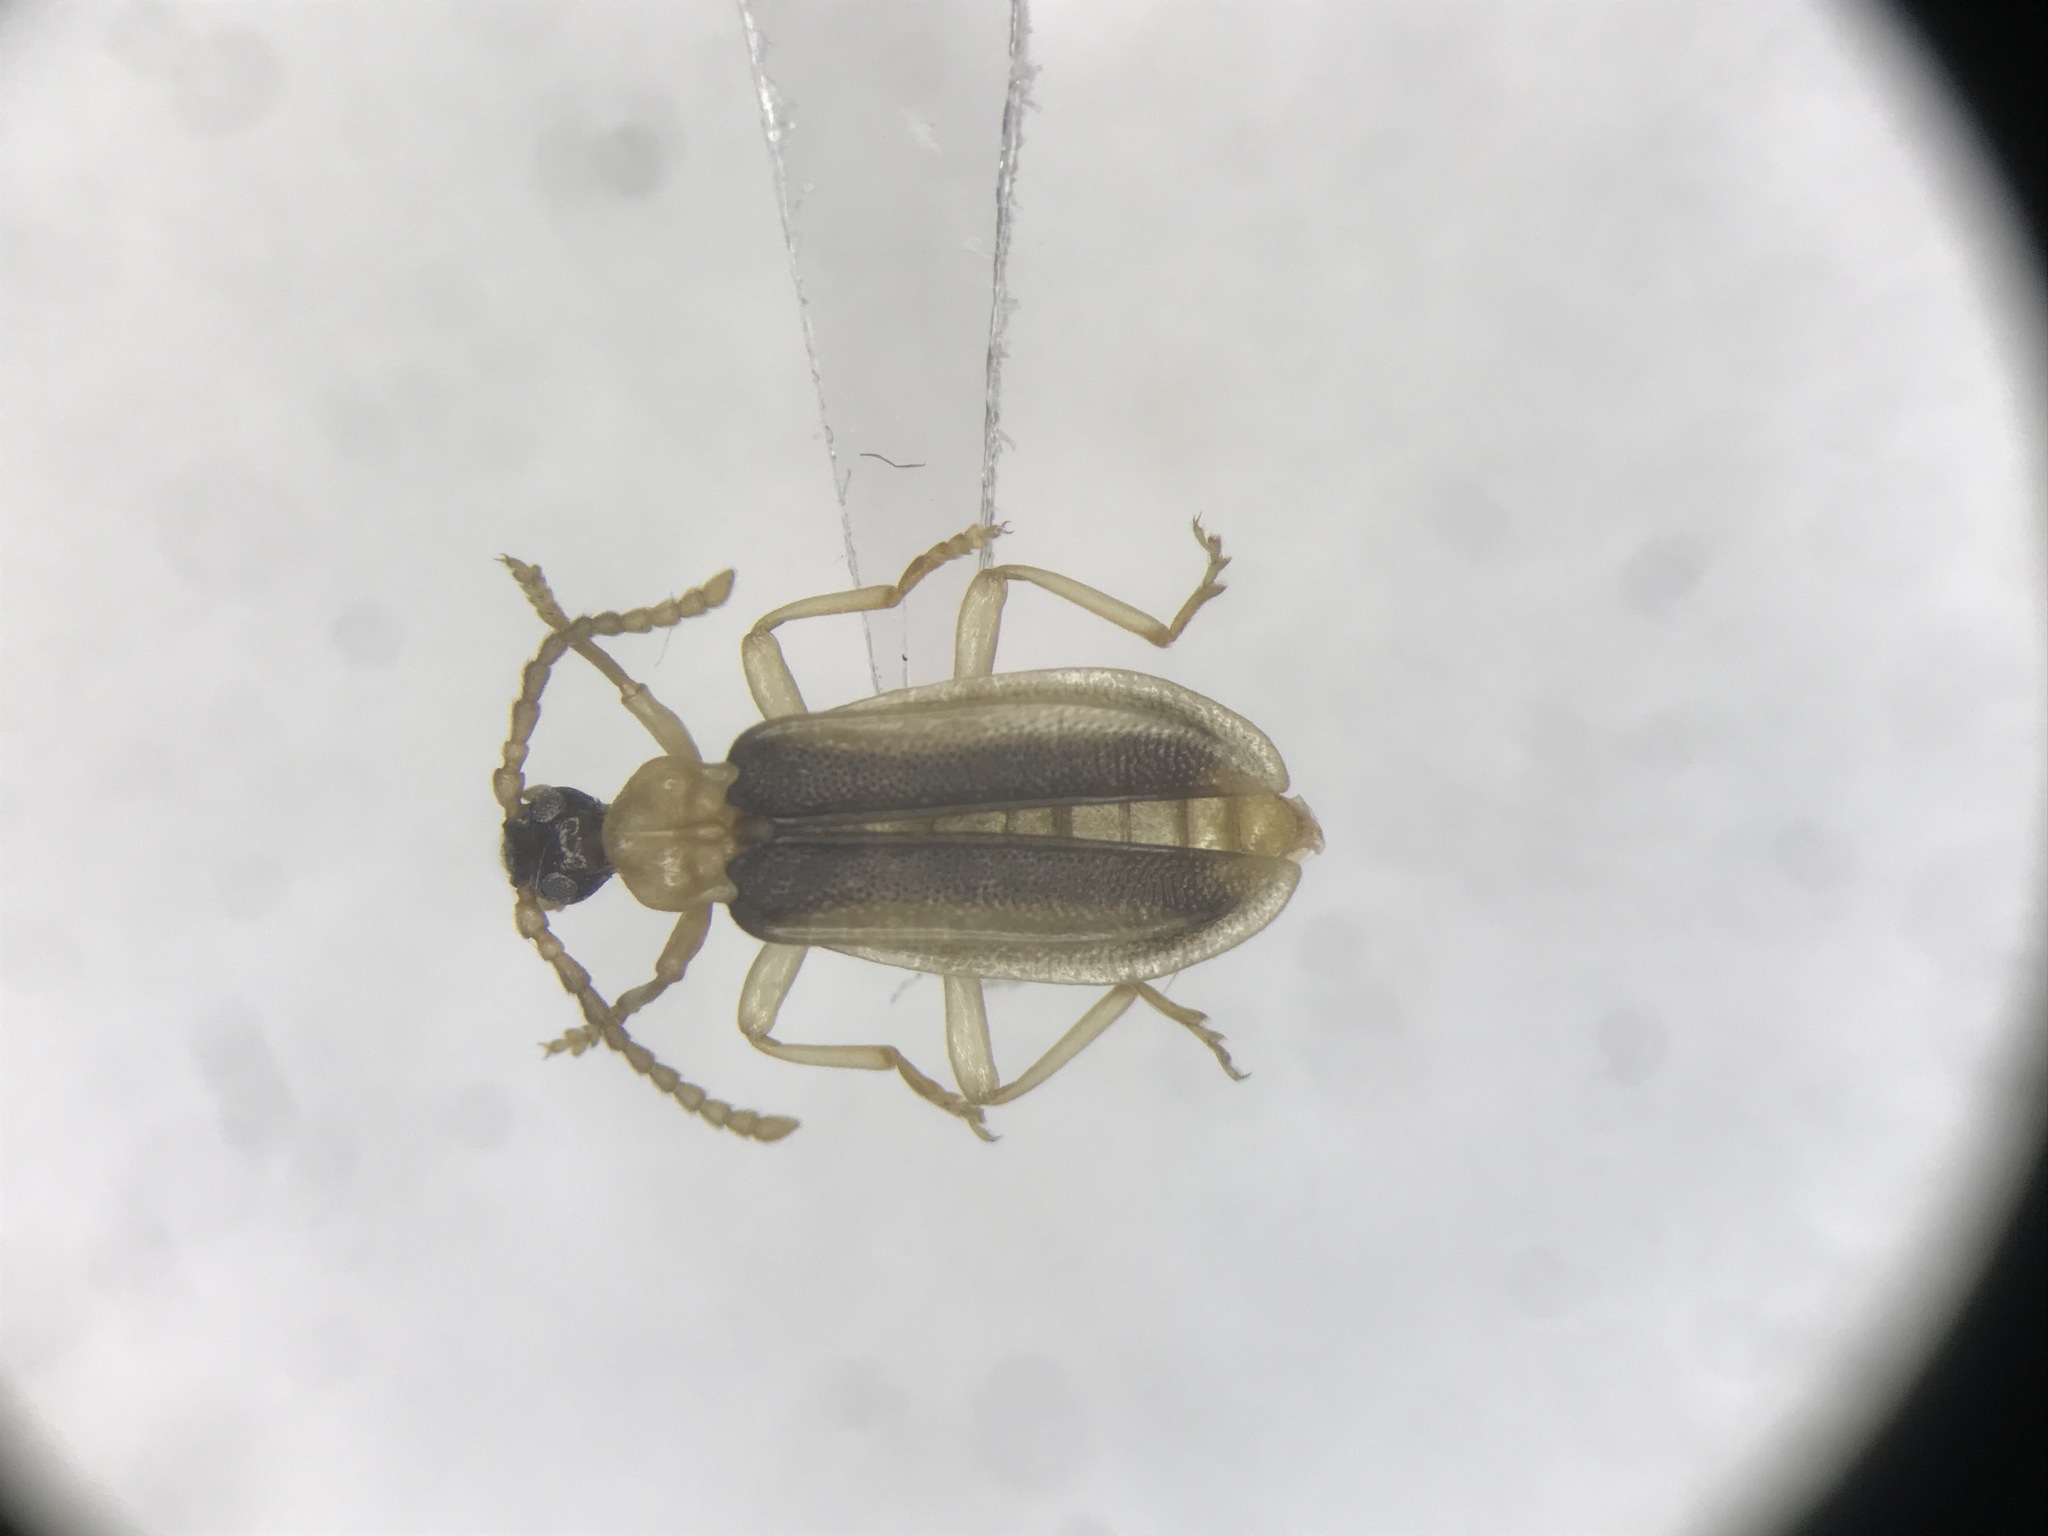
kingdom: Animalia
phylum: Arthropoda
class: Insecta
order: Coleoptera
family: Anthicidae
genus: Ischalia
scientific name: Ischalia costata
